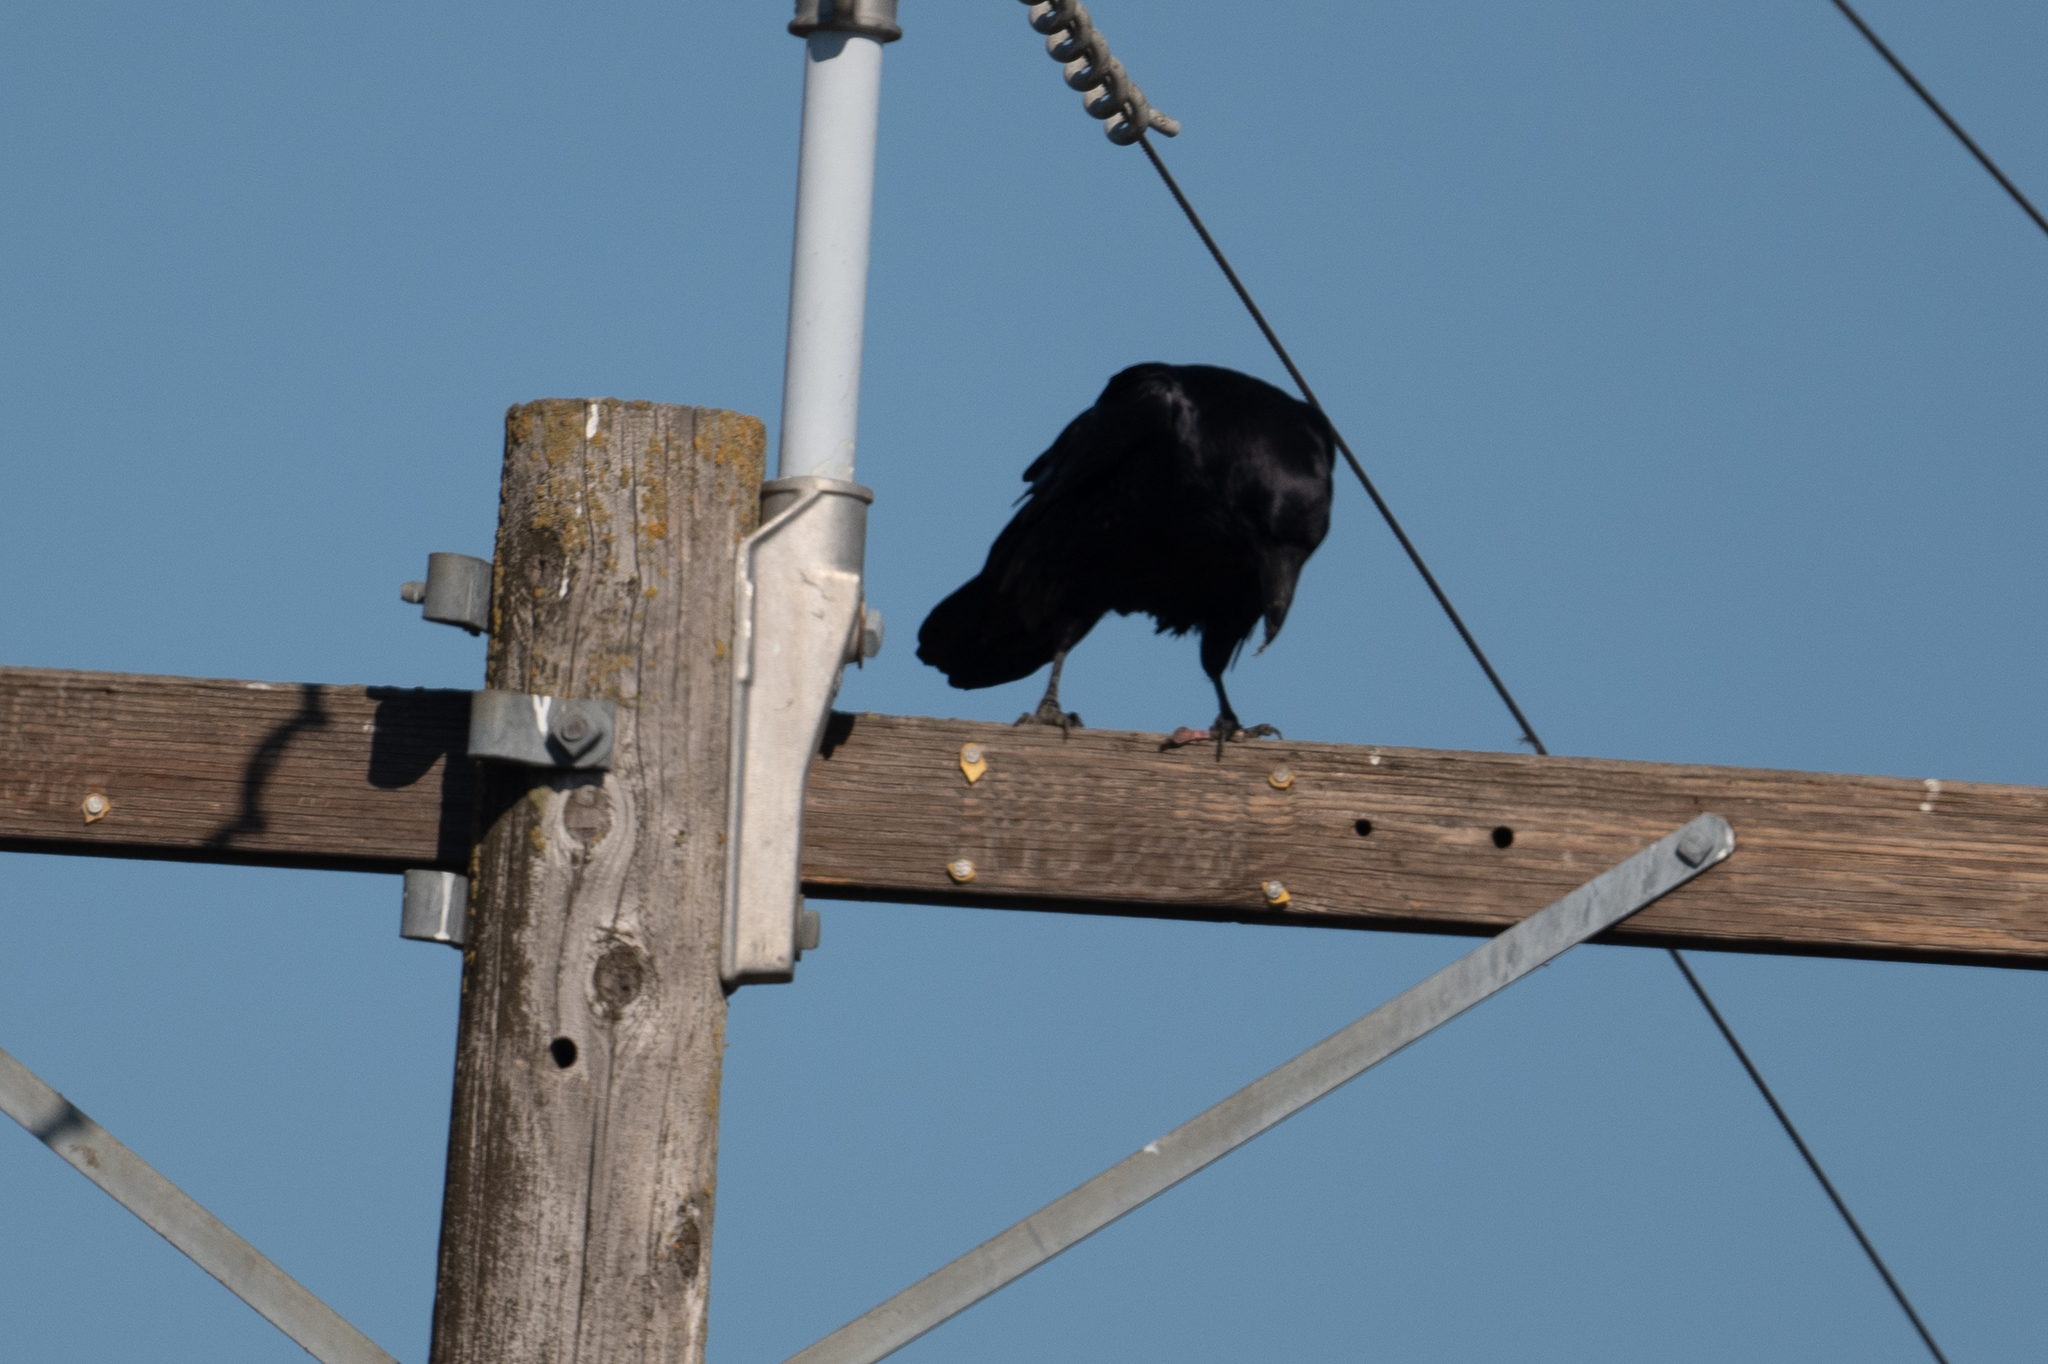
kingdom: Animalia
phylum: Chordata
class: Aves
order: Passeriformes
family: Corvidae
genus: Corvus
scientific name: Corvus corax
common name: Common raven
